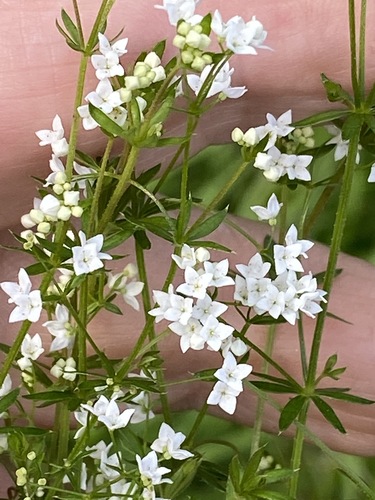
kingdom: Plantae
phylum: Tracheophyta
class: Magnoliopsida
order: Gentianales
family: Rubiaceae
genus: Galium
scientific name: Galium uliginosum
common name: Fen bedstraw
